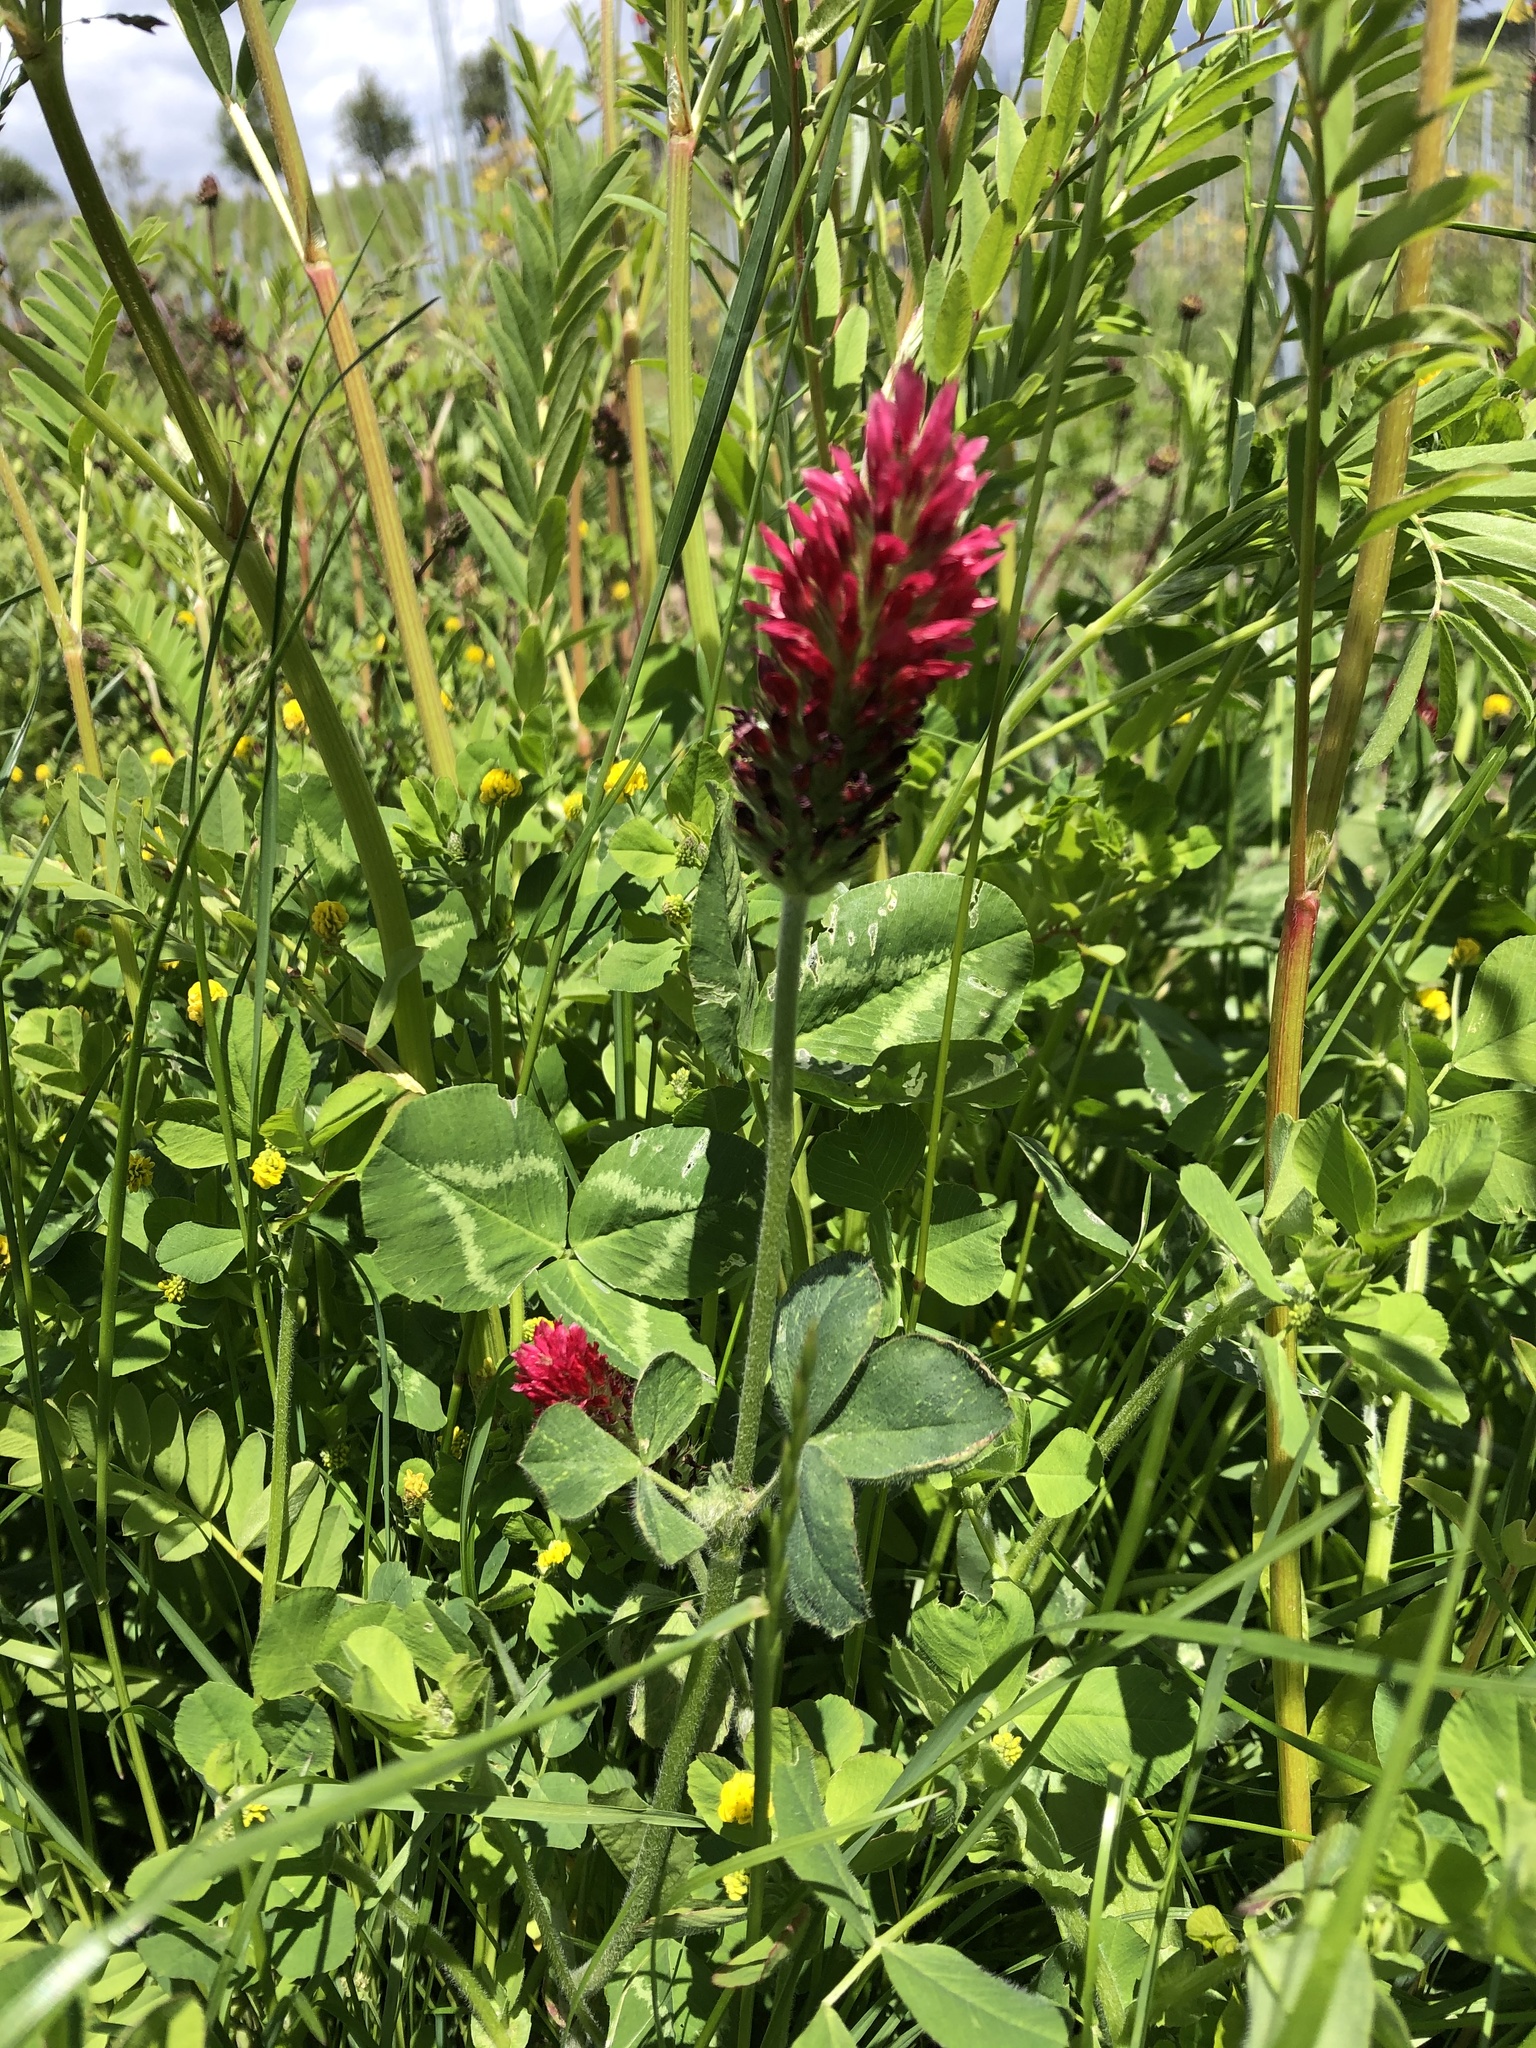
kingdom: Plantae
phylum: Tracheophyta
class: Magnoliopsida
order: Fabales
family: Fabaceae
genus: Trifolium
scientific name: Trifolium incarnatum
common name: Crimson clover
